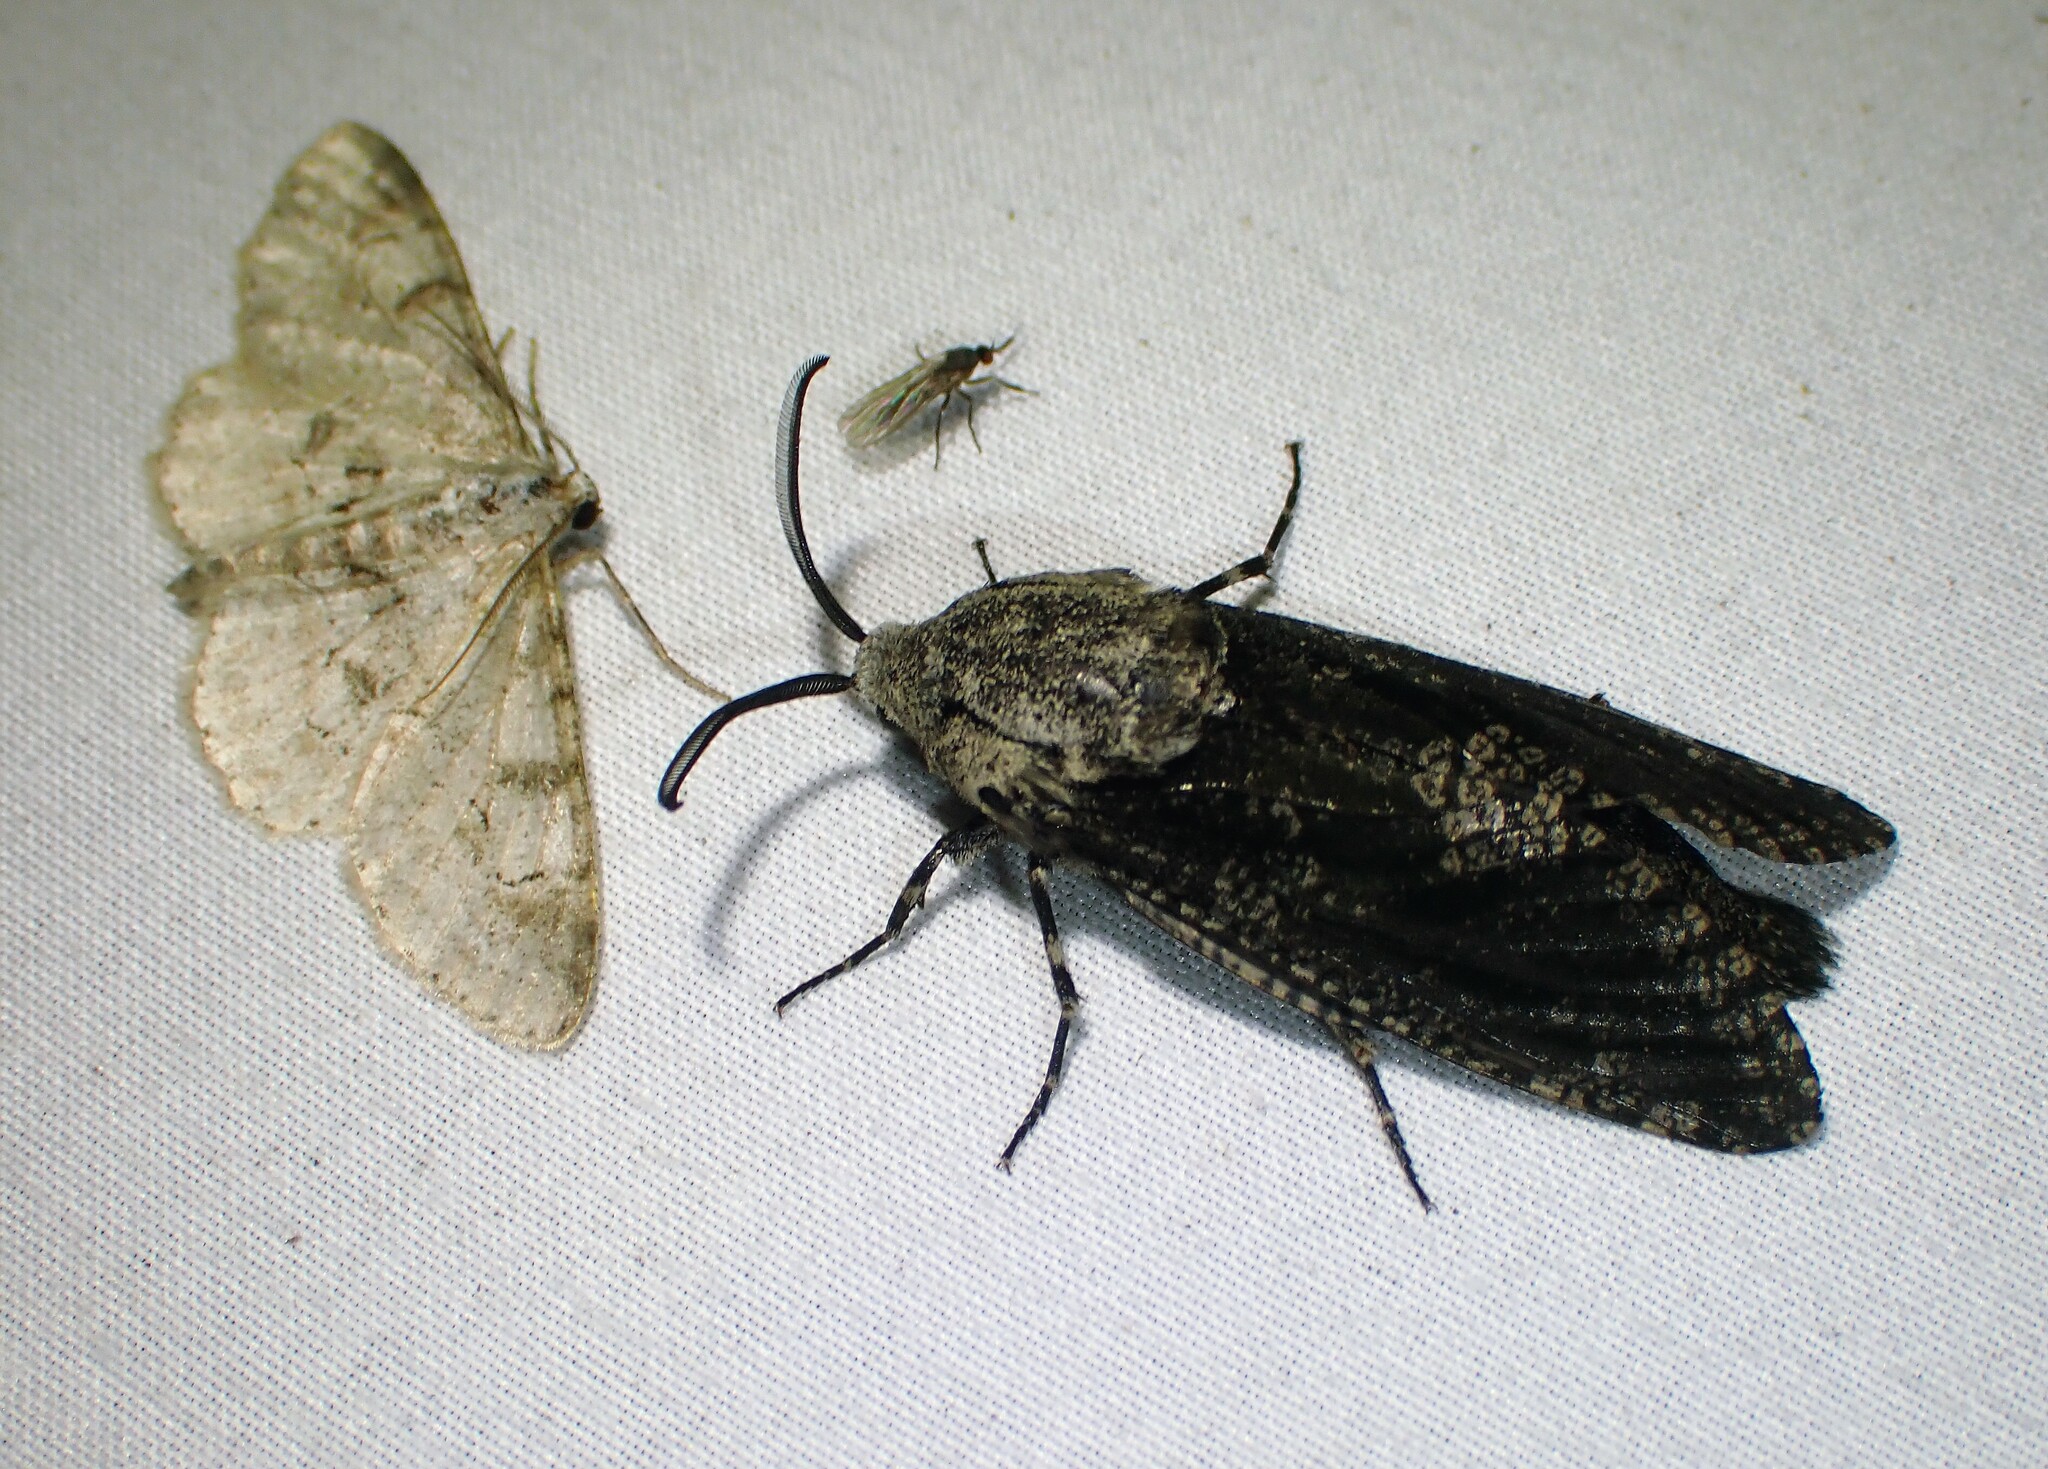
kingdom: Animalia
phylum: Arthropoda
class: Insecta
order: Lepidoptera
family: Cossidae
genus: Prionoxystus
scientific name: Prionoxystus robiniae
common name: Carpenterworm
